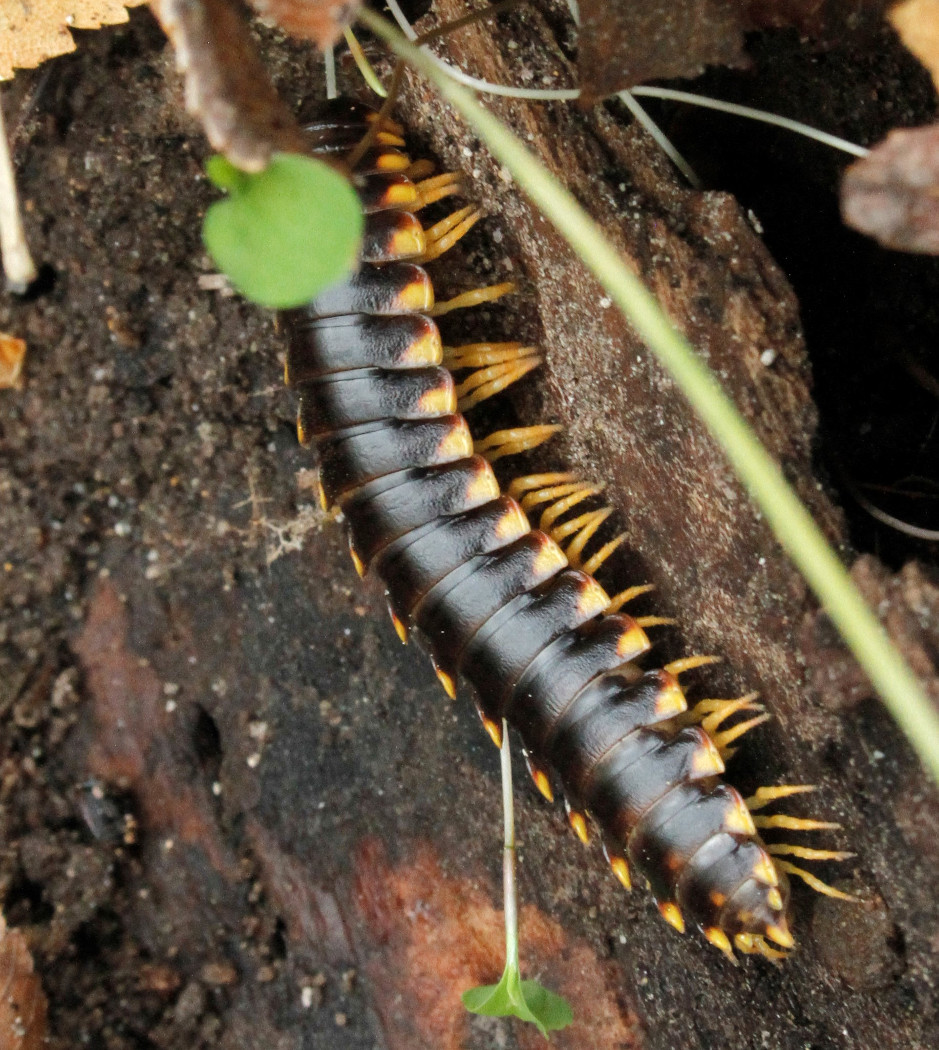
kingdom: Animalia
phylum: Arthropoda
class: Diplopoda
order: Polydesmida
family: Xystodesmidae
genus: Apheloria
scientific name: Apheloria tigana
